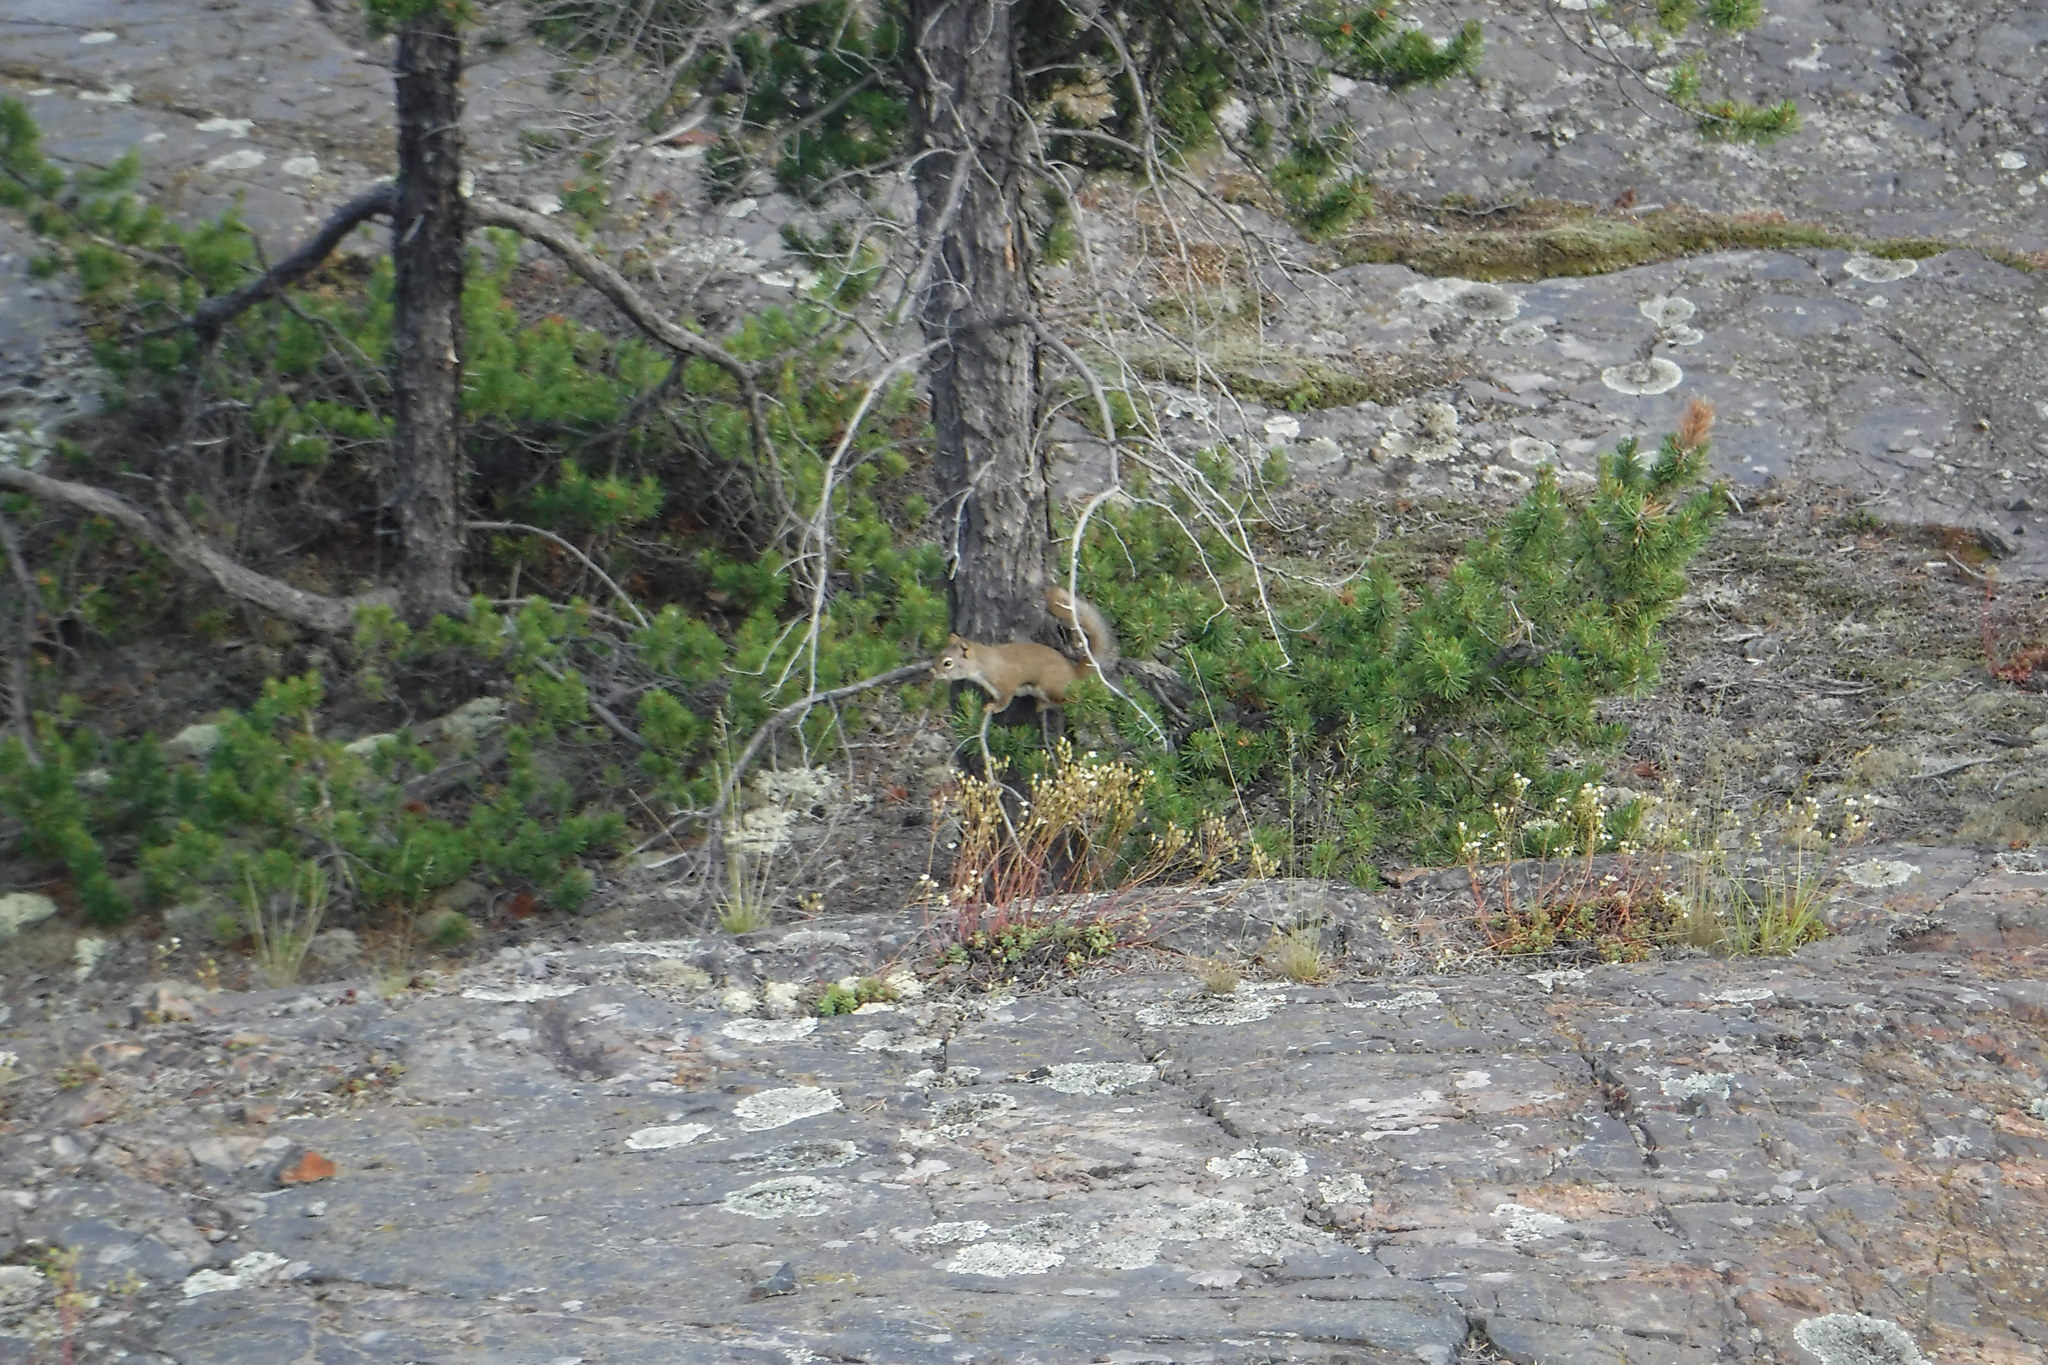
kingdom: Animalia
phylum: Chordata
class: Mammalia
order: Rodentia
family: Sciuridae
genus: Tamiasciurus
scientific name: Tamiasciurus hudsonicus
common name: Red squirrel
